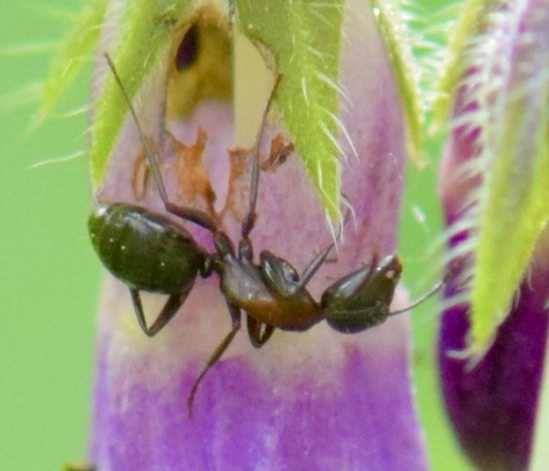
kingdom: Animalia
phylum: Arthropoda
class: Insecta
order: Hymenoptera
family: Formicidae
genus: Camponotus
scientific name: Camponotus novaeboracensis
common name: New york carpenter ant
